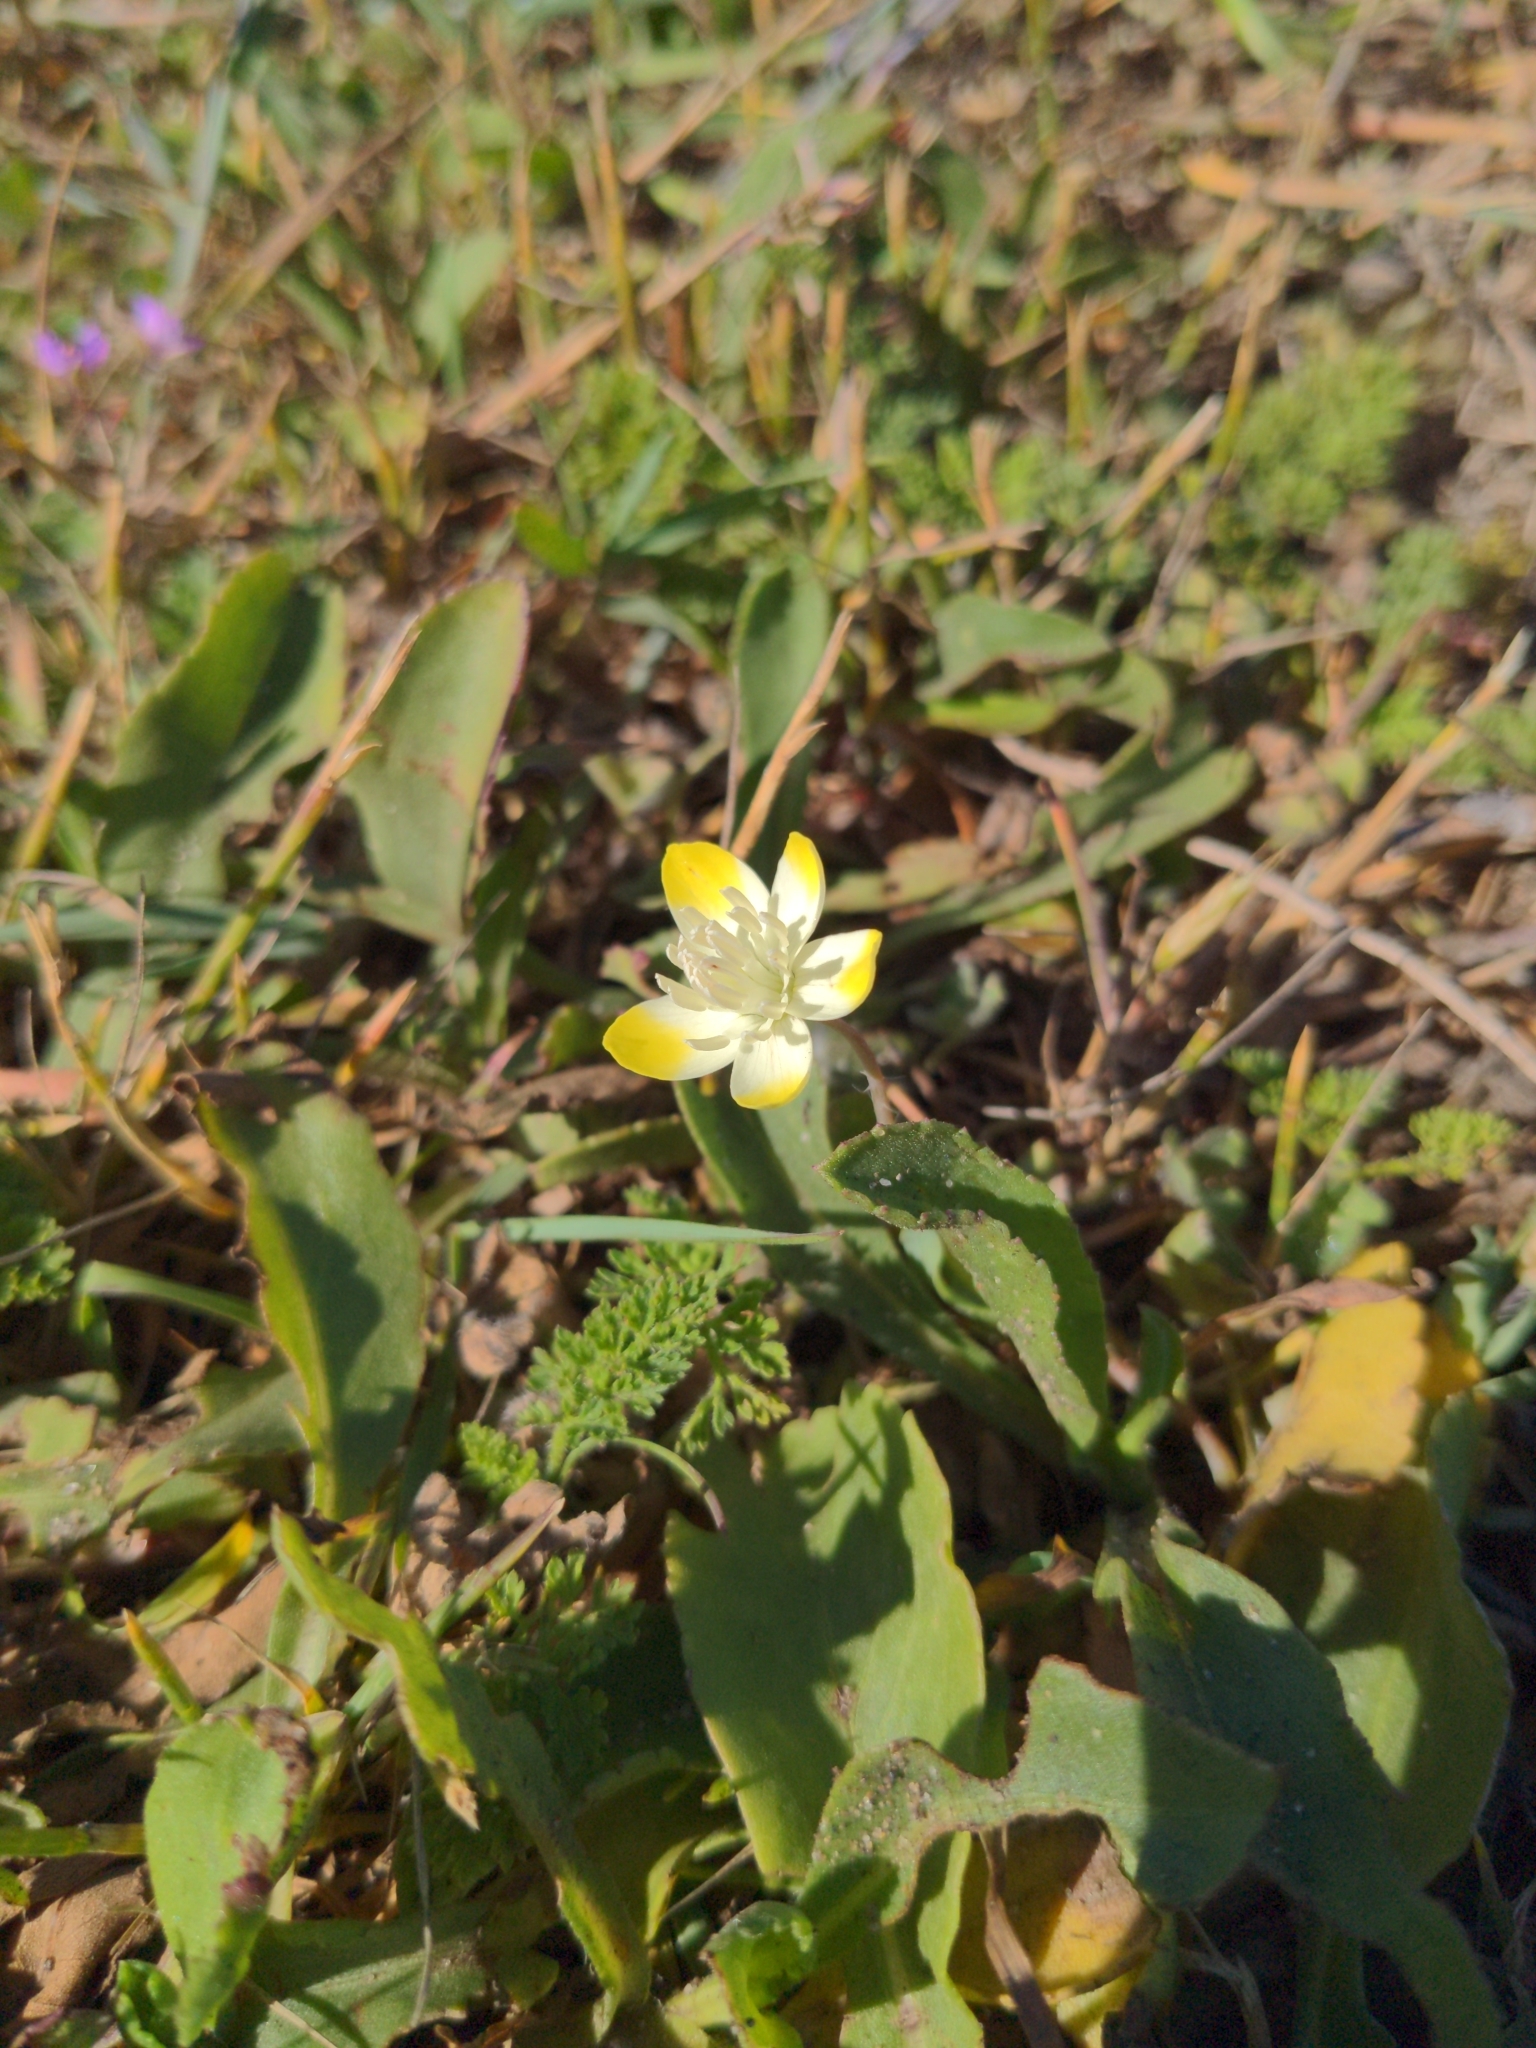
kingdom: Plantae
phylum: Tracheophyta
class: Magnoliopsida
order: Ranunculales
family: Papaveraceae
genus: Platystemon
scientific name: Platystemon californicus
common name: Cream-cups
